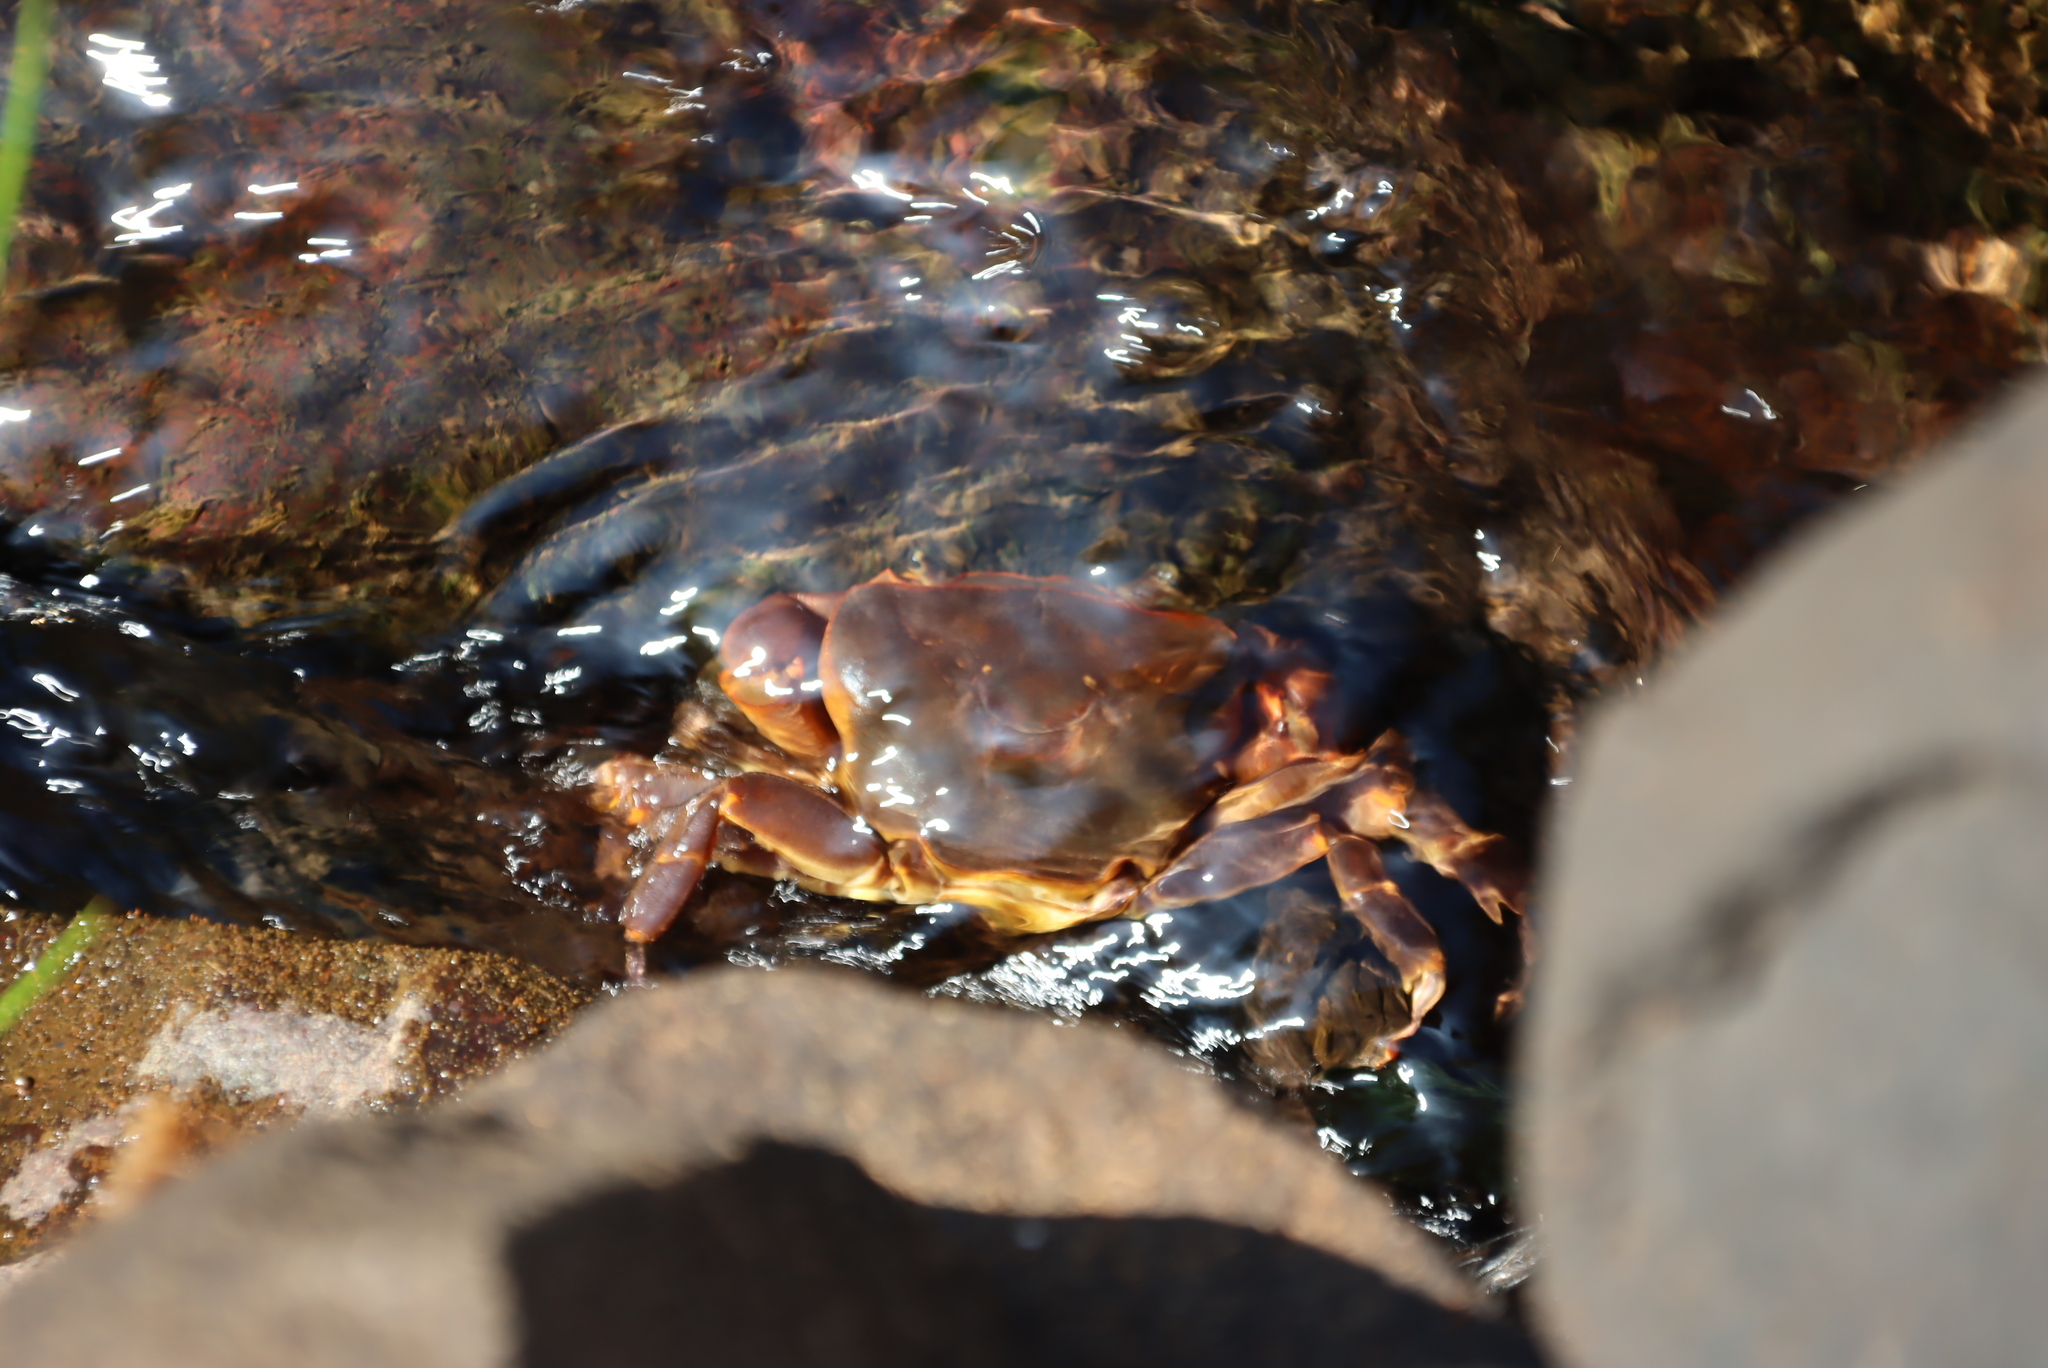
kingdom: Animalia
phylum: Arthropoda
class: Malacostraca
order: Decapoda
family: Potamonautidae
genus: Potamonautes
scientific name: Potamonautes sidneyi
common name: Natal river crab
